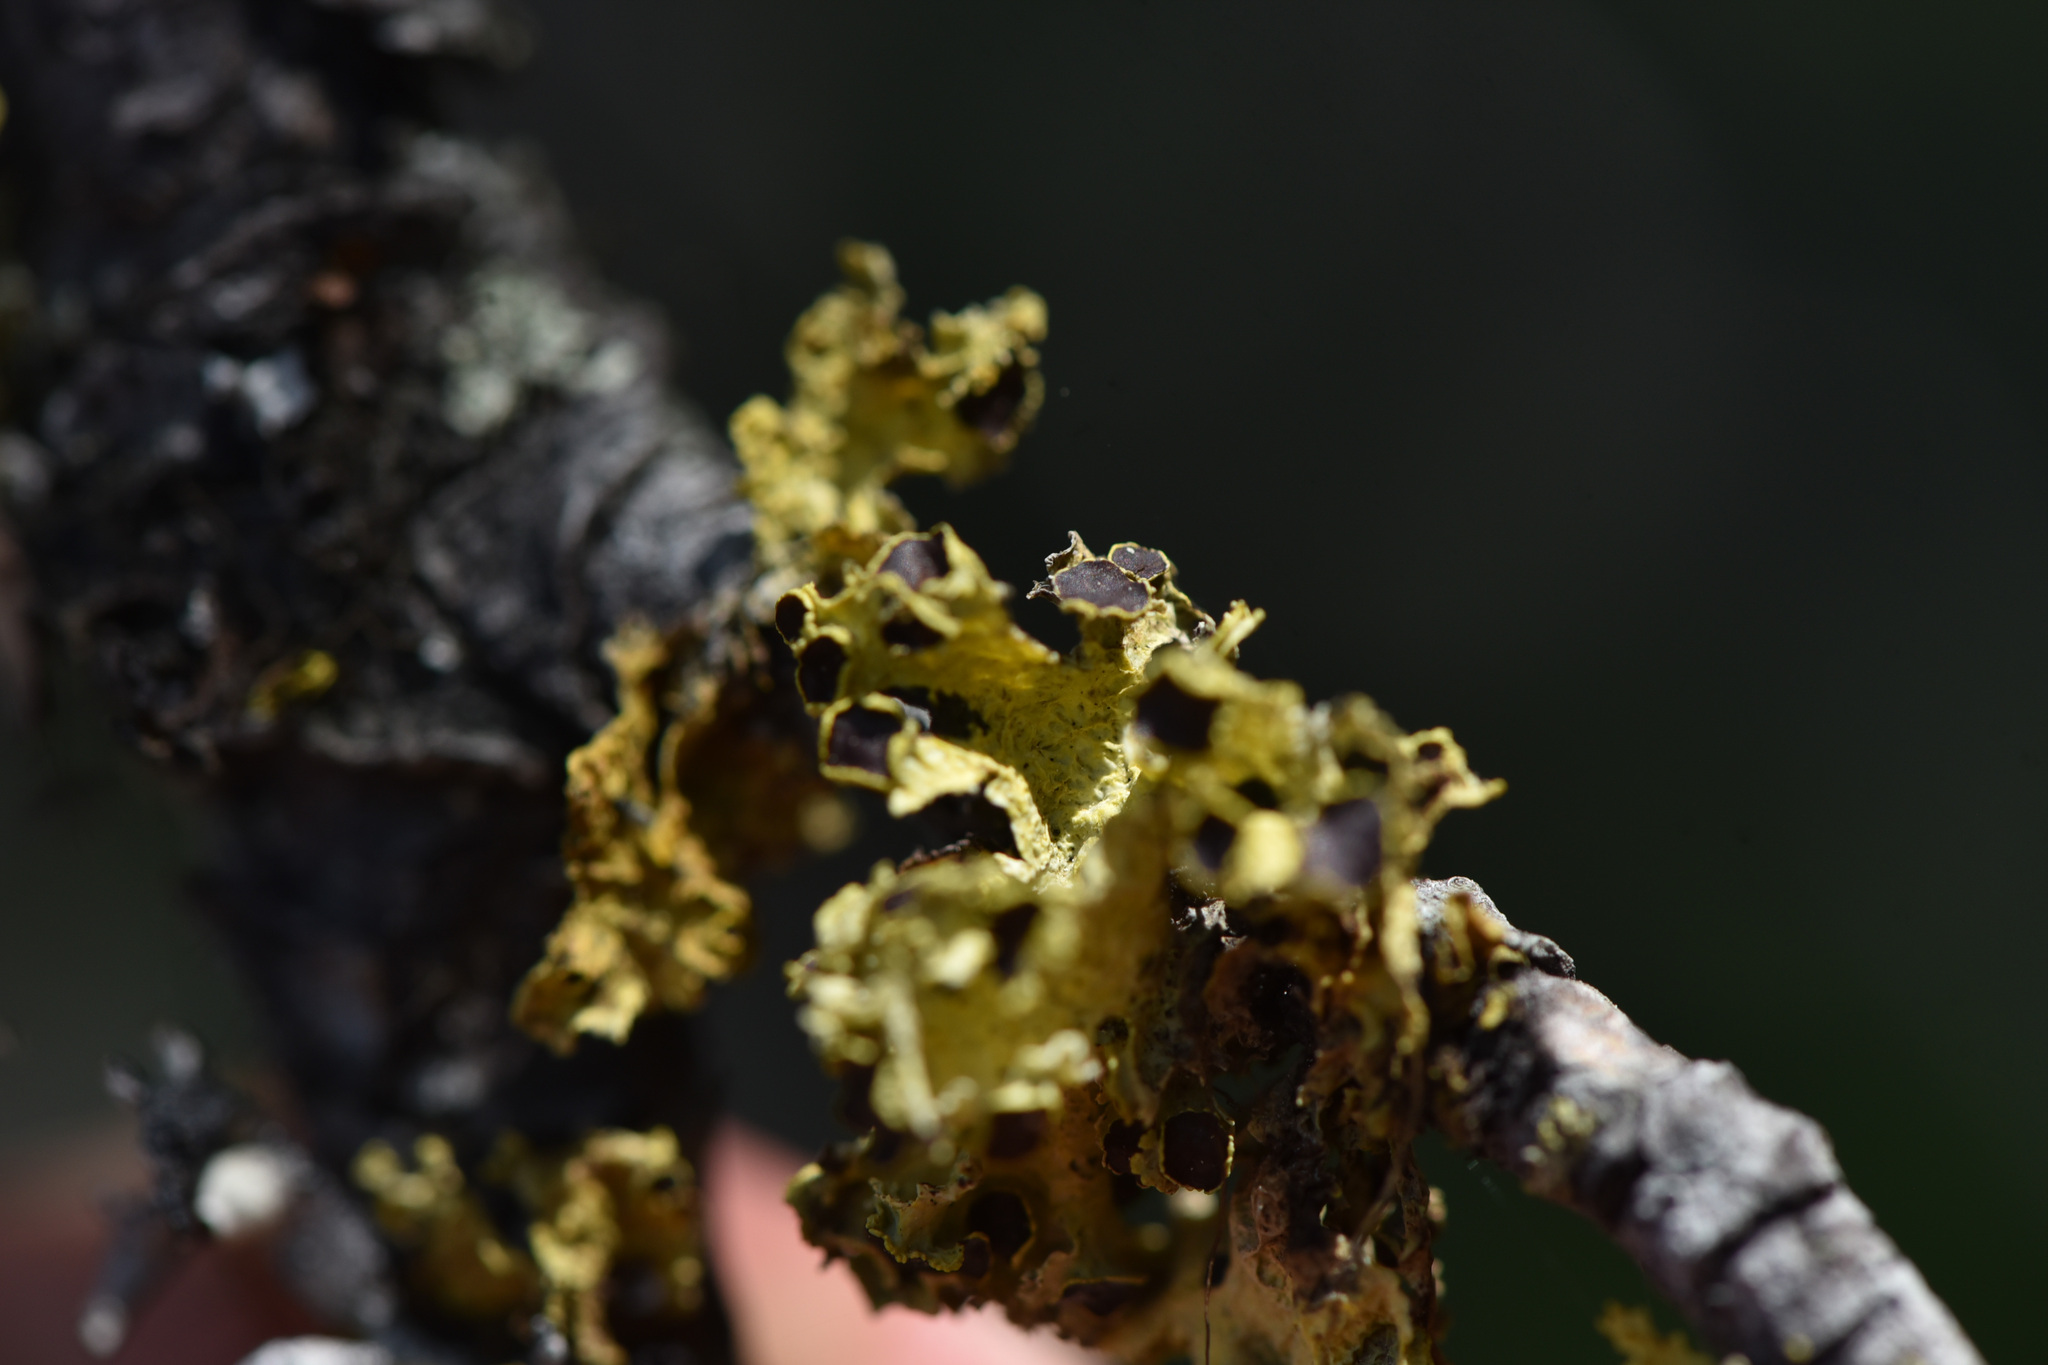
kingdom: Fungi
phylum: Ascomycota
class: Lecanoromycetes
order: Lecanorales
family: Parmeliaceae
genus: Vulpicida
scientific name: Vulpicida canadensis
